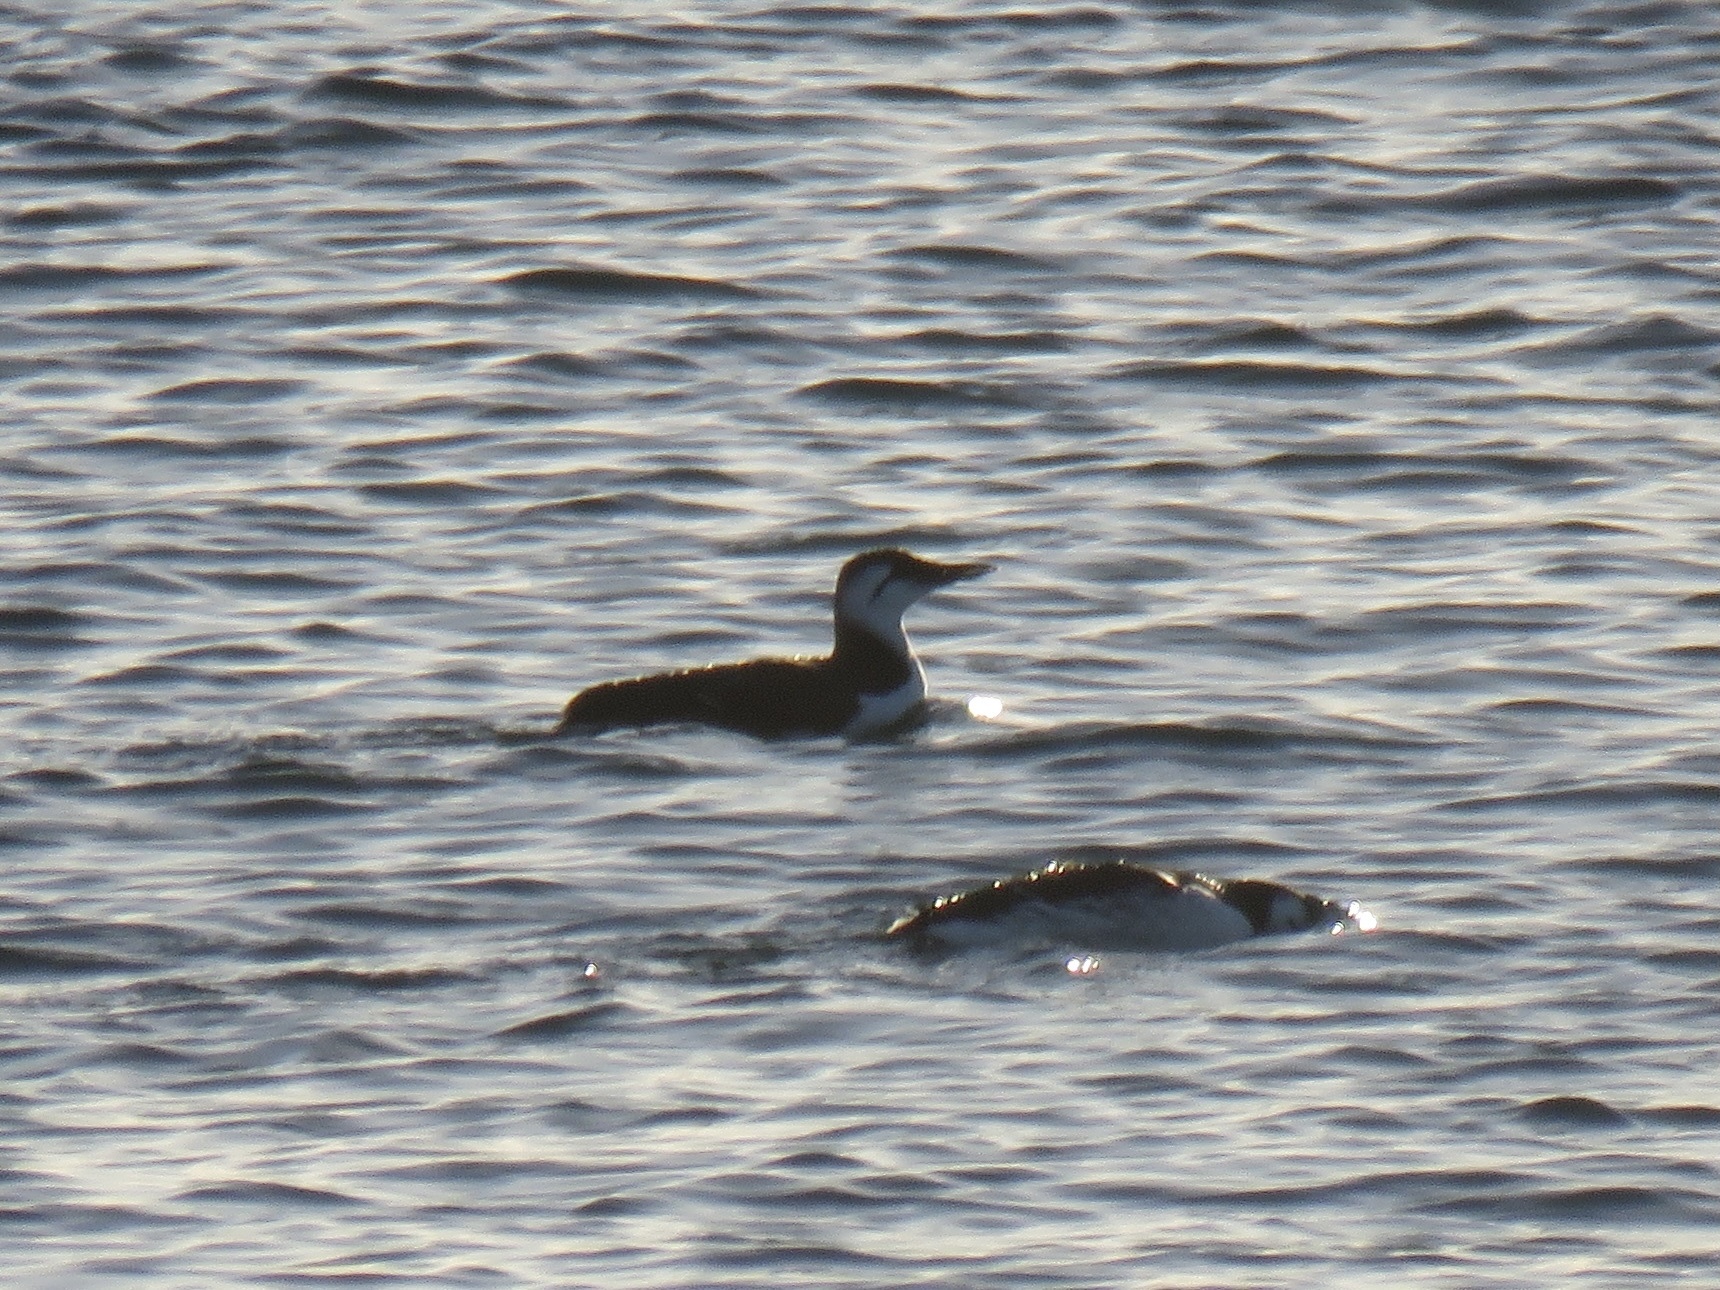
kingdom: Animalia
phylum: Chordata
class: Aves
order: Charadriiformes
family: Alcidae
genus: Uria
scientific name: Uria aalge
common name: Common murre
